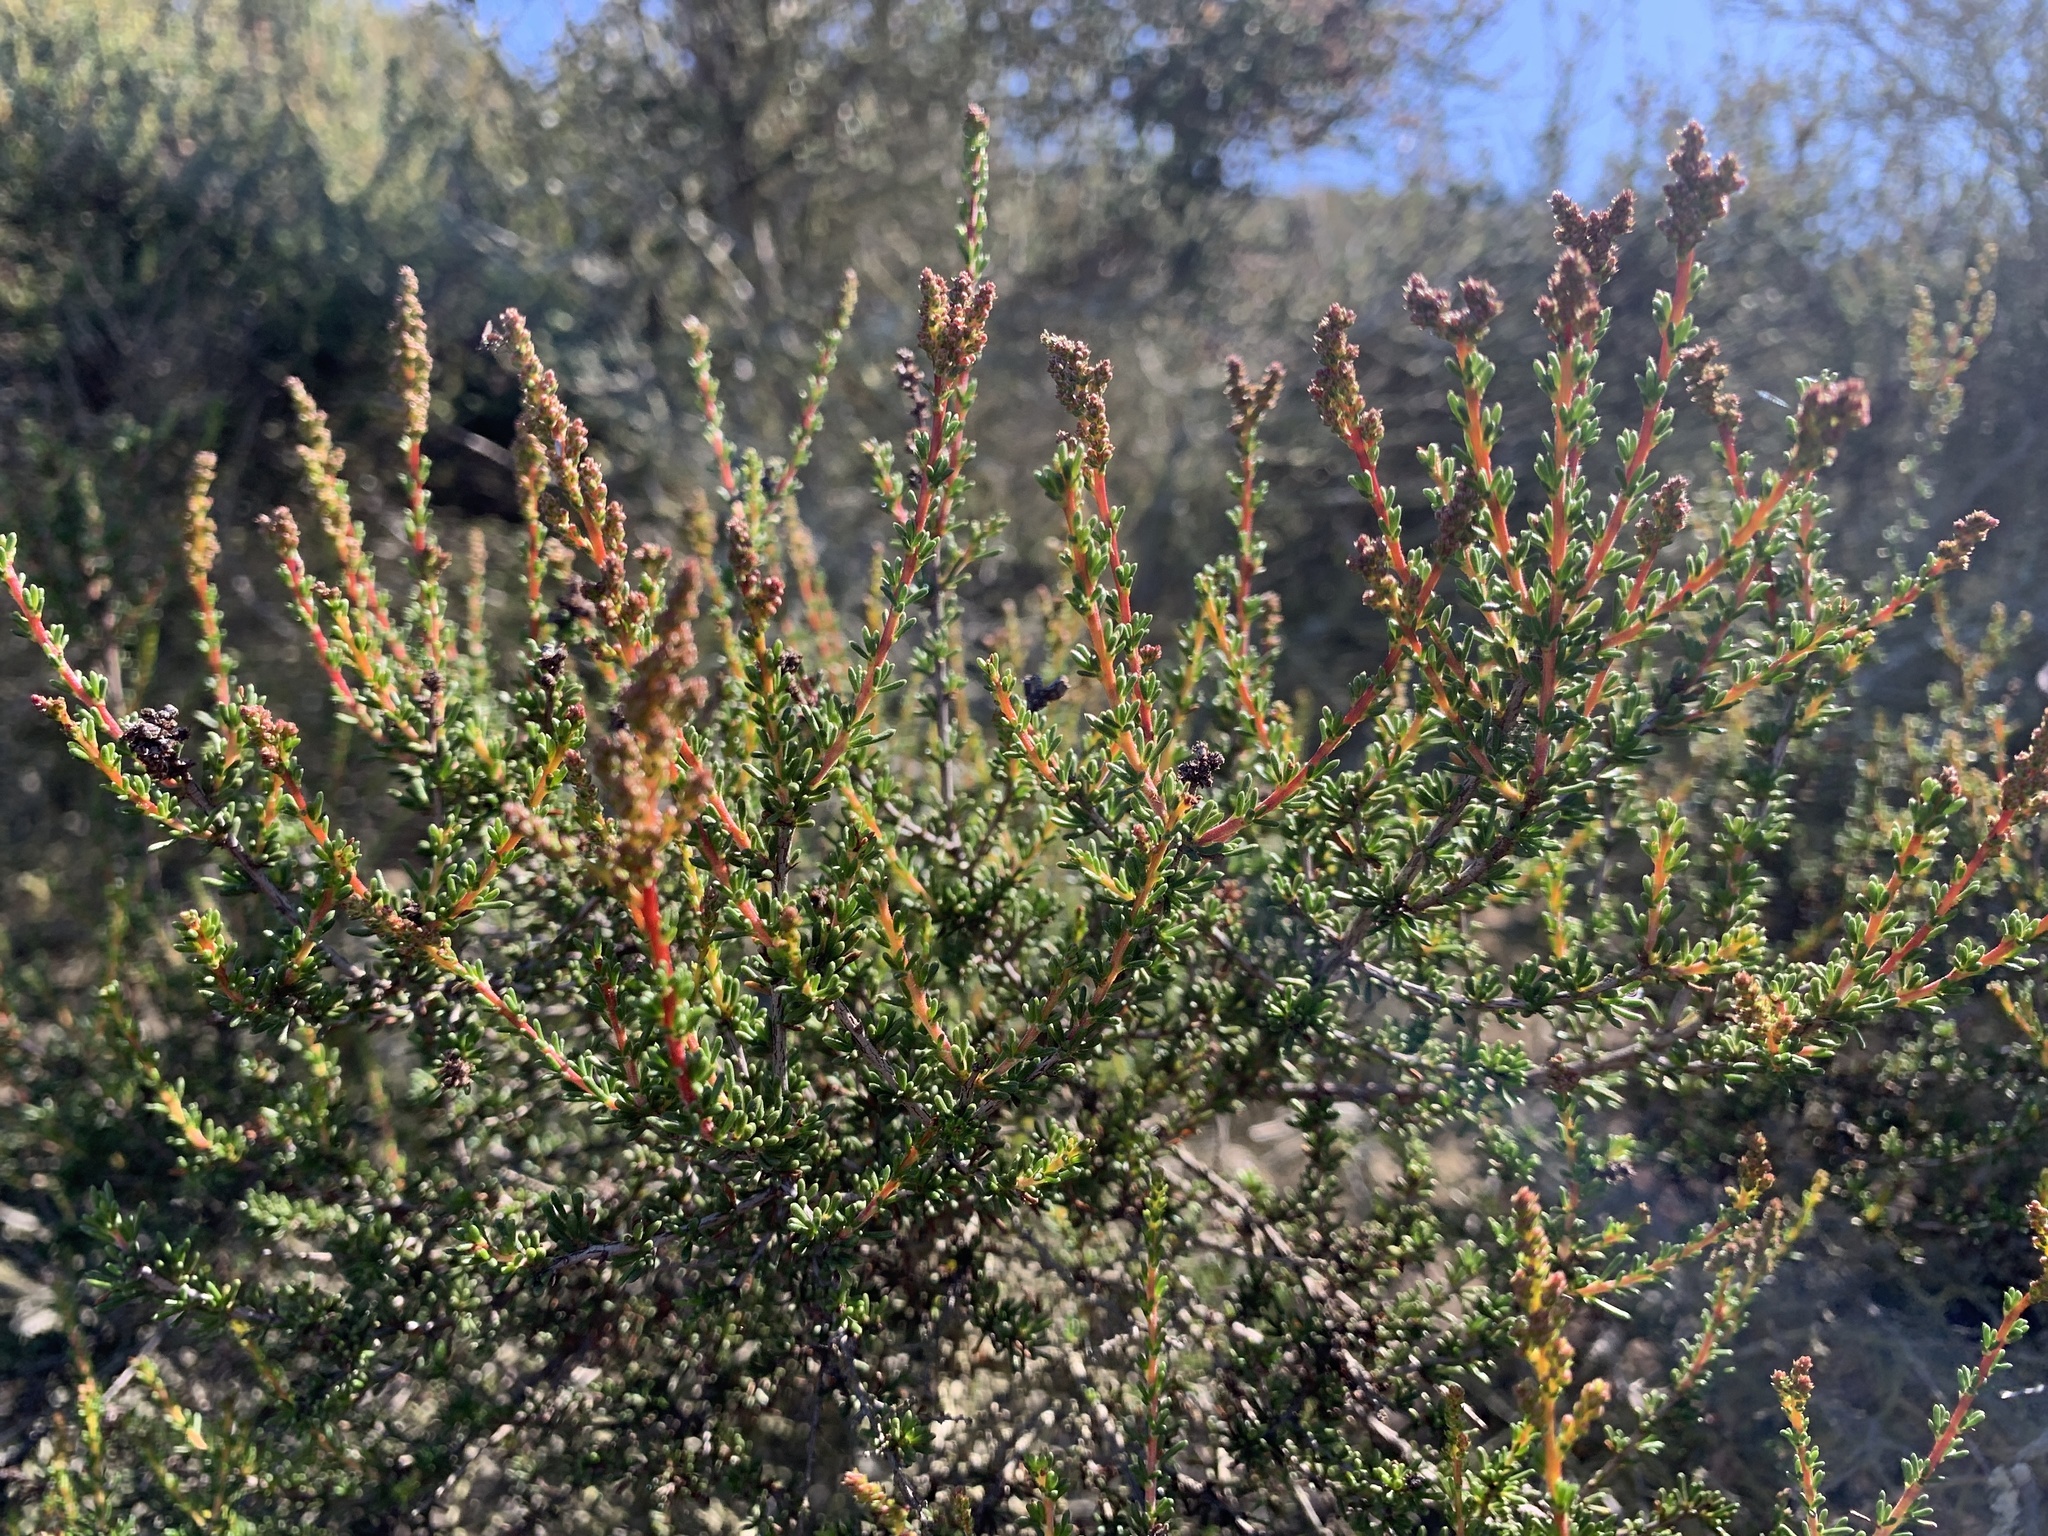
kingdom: Plantae
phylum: Tracheophyta
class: Magnoliopsida
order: Rosales
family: Rosaceae
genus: Adenostoma
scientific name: Adenostoma fasciculatum
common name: Chamise
